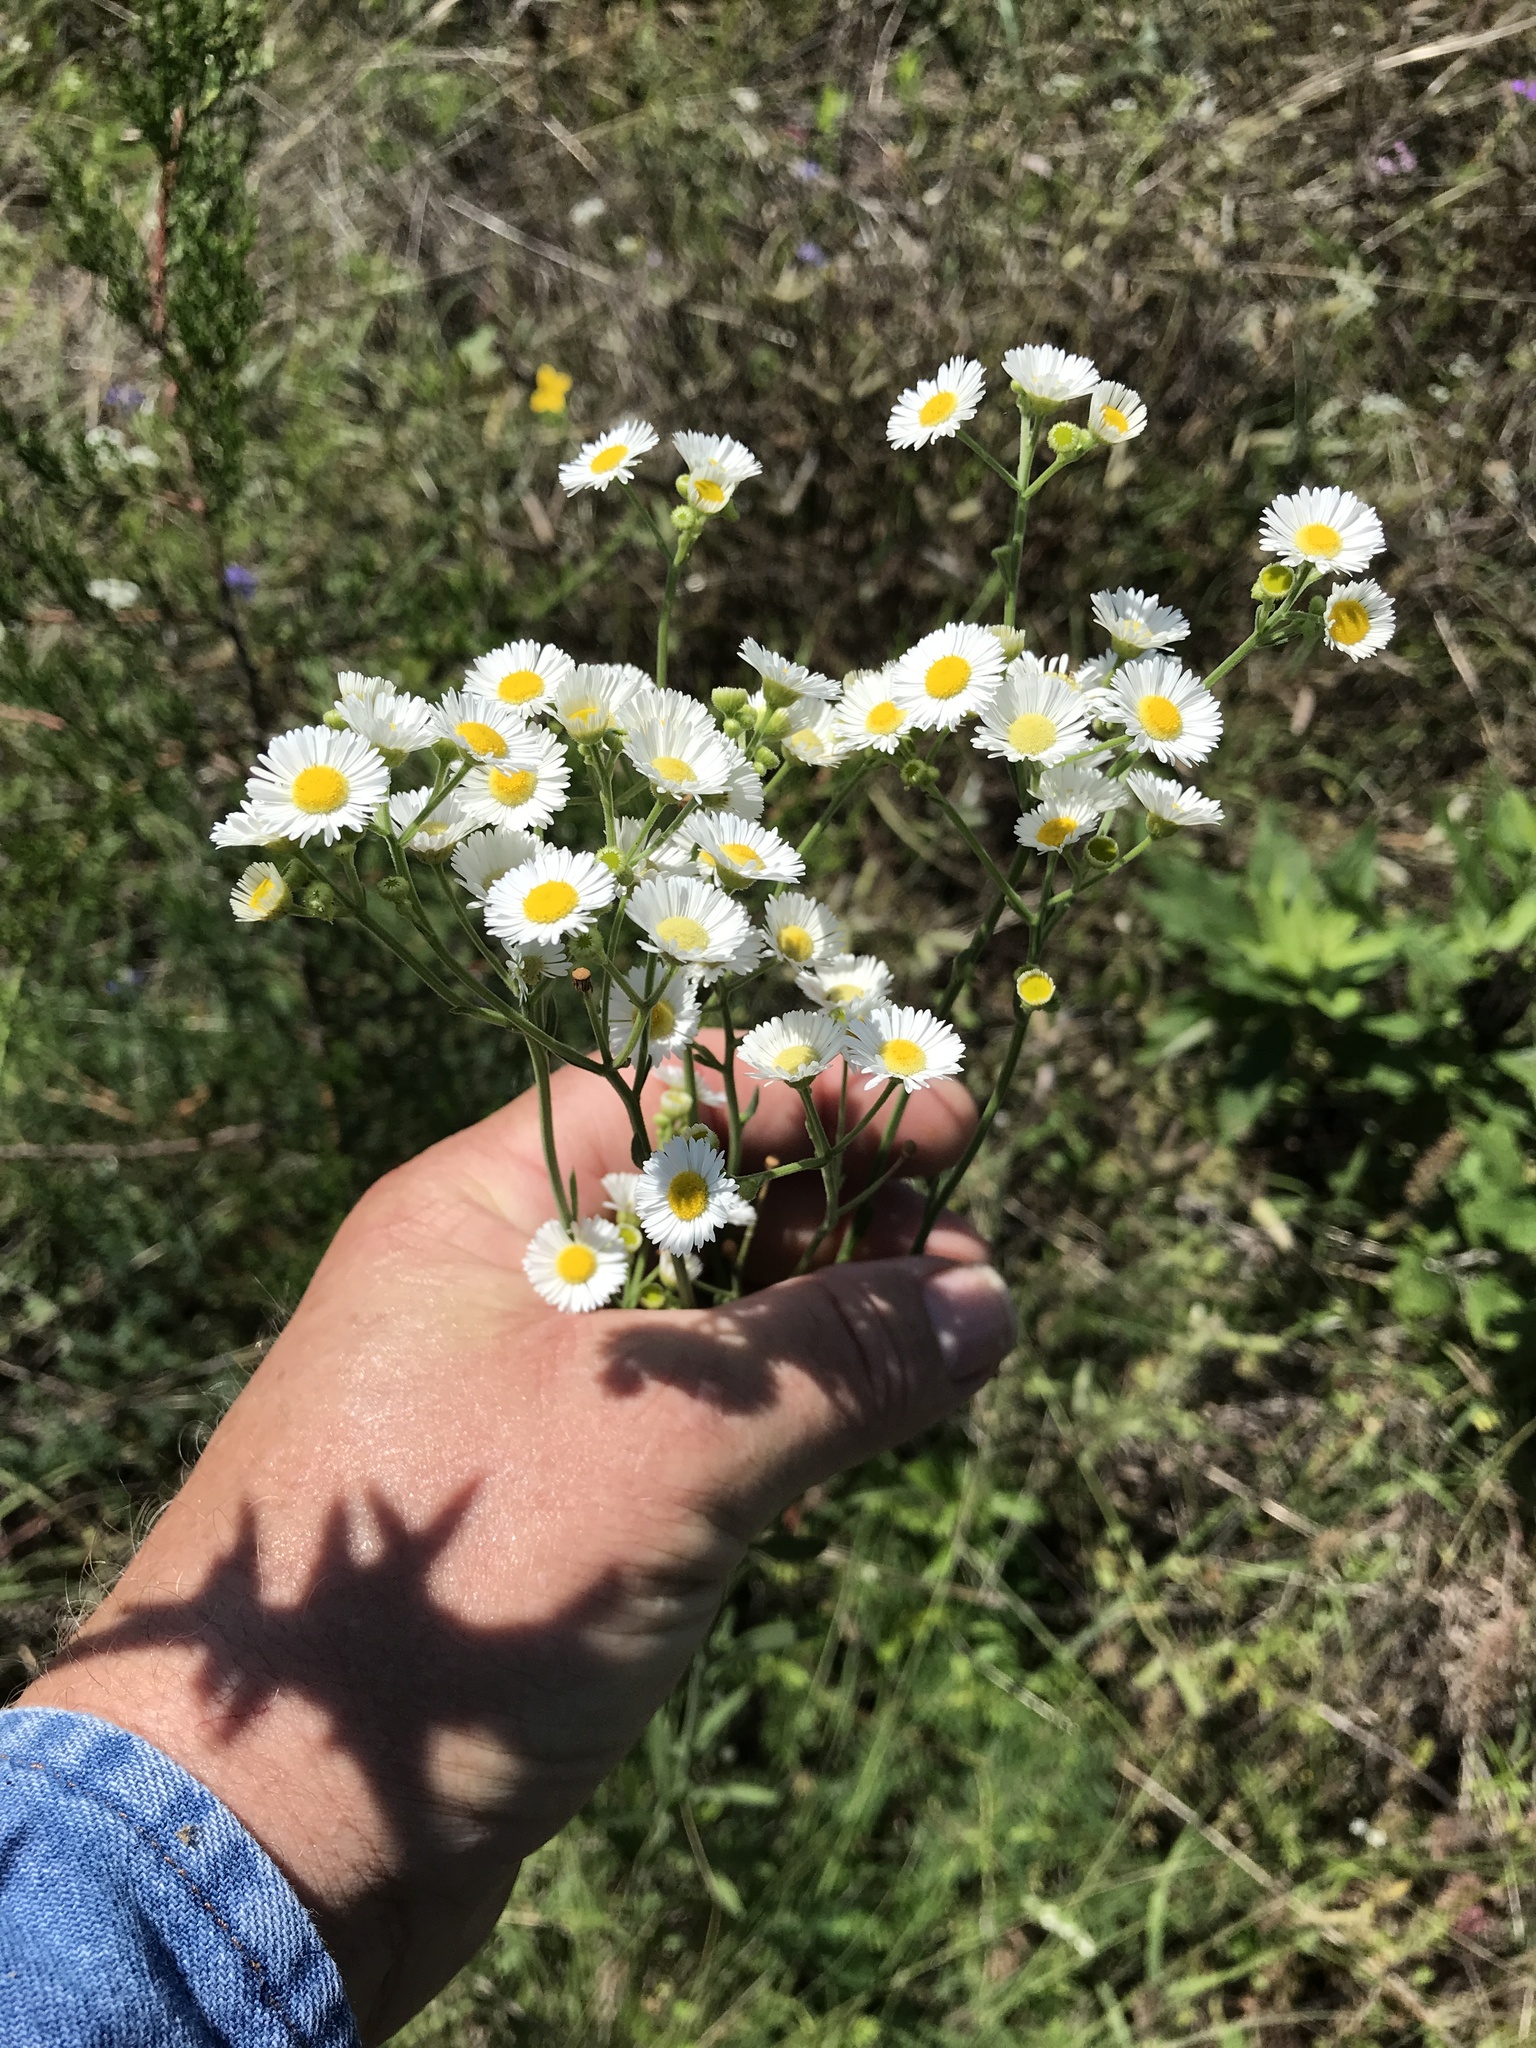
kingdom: Plantae
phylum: Tracheophyta
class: Magnoliopsida
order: Asterales
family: Asteraceae
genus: Erigeron
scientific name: Erigeron strigosus
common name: Common eastern fleabane
